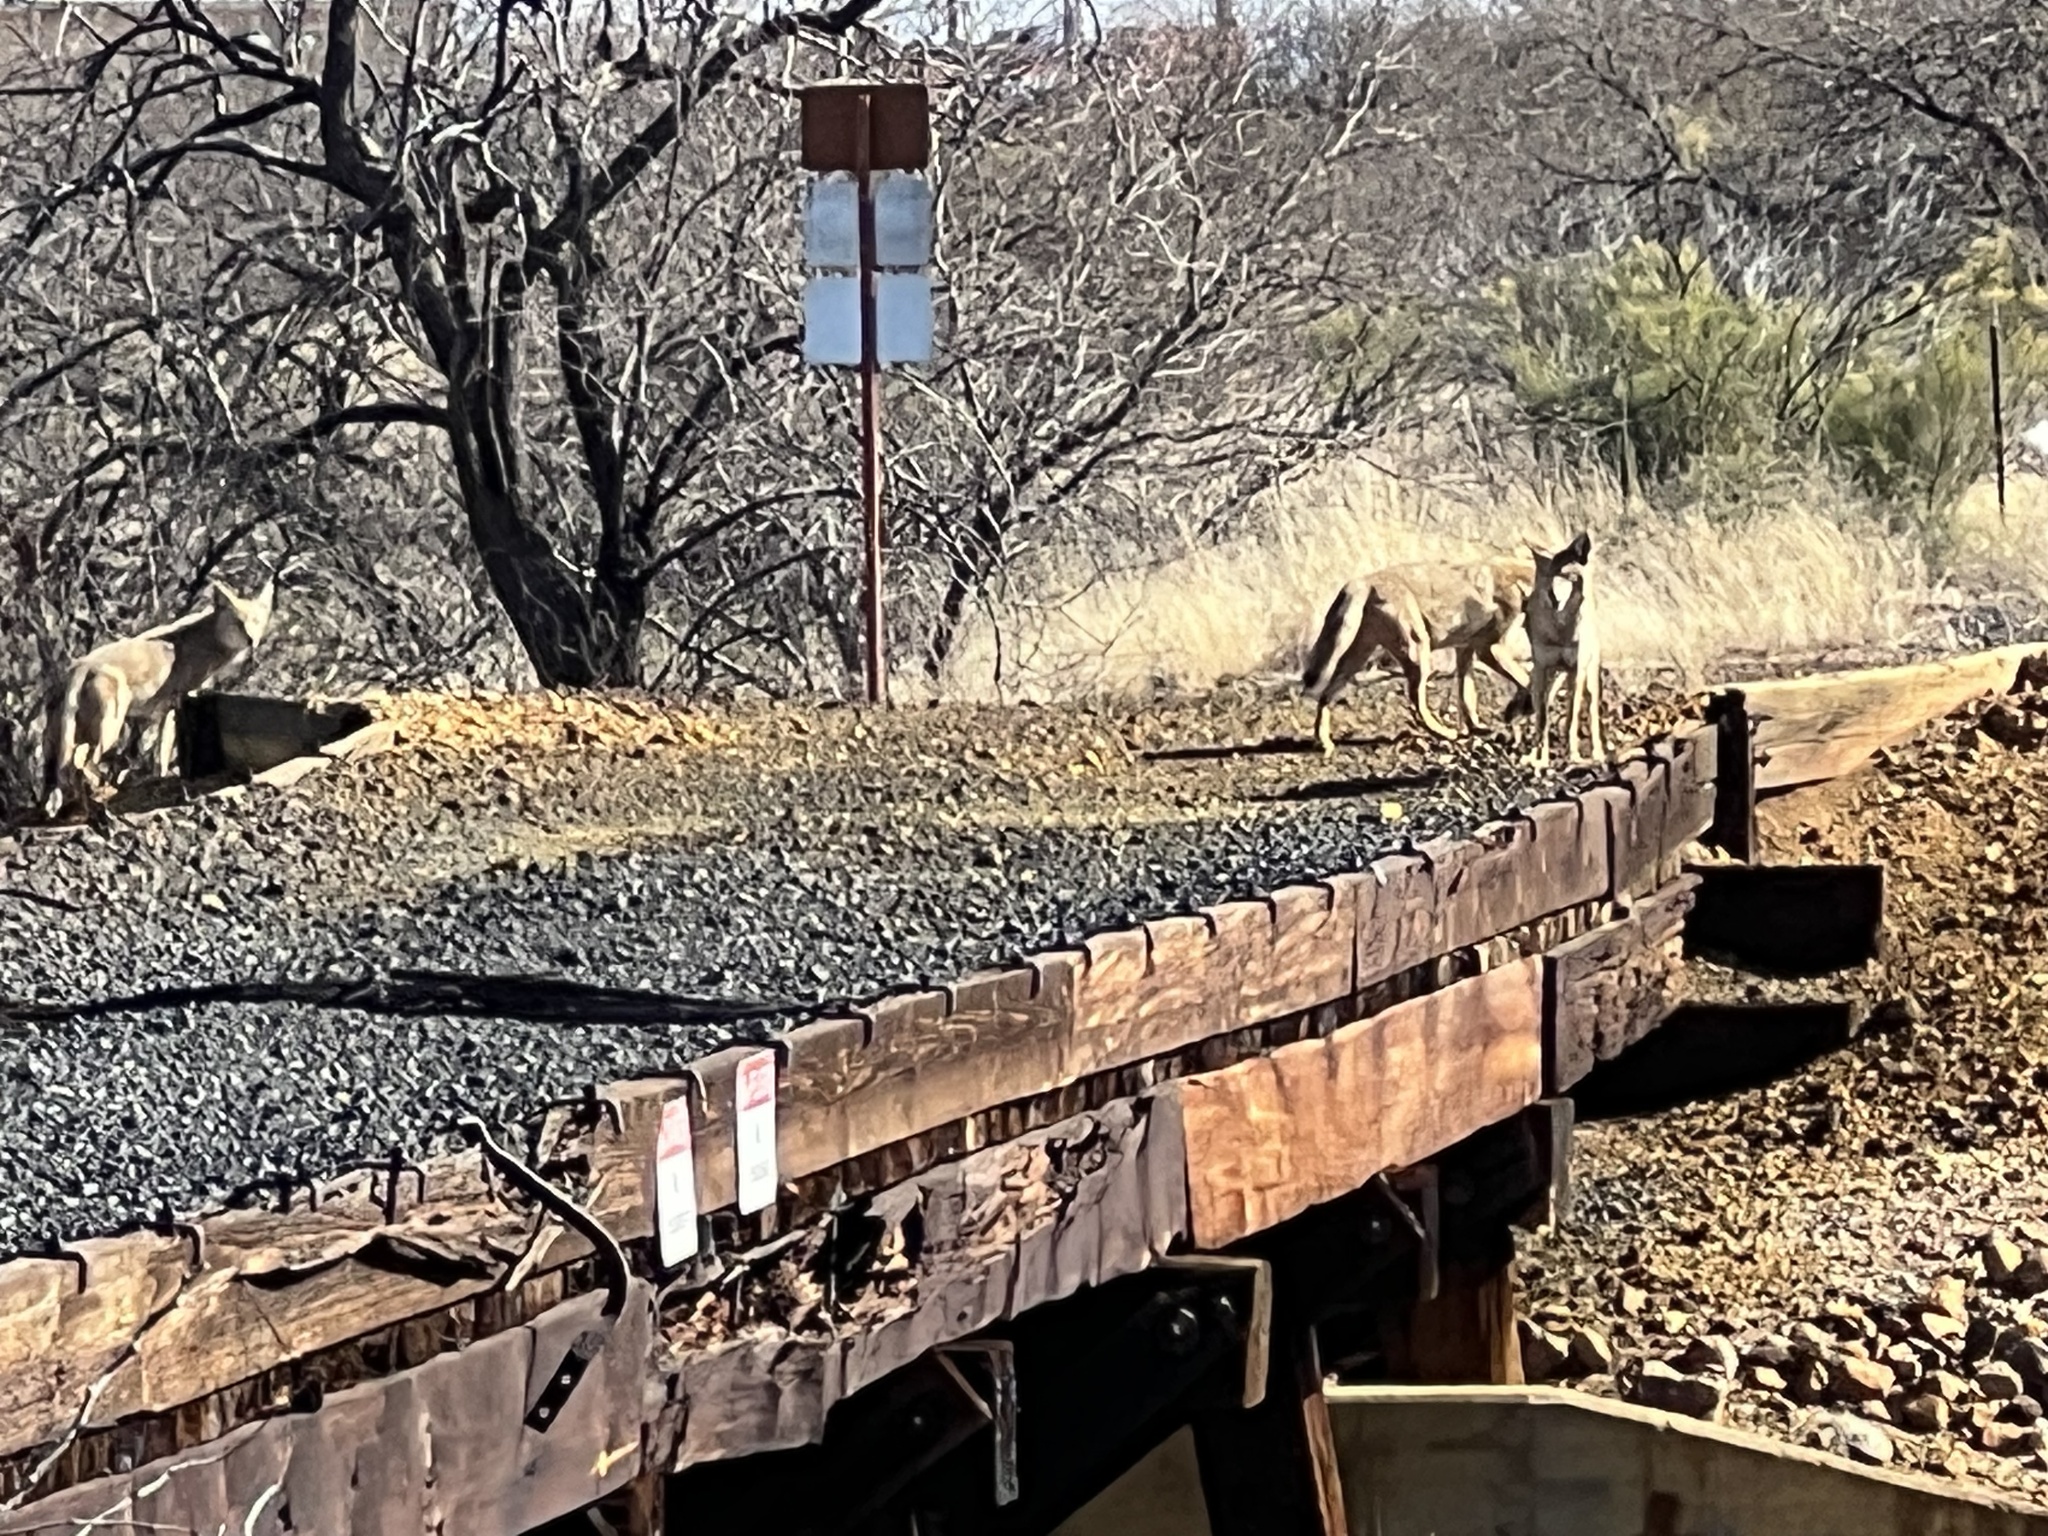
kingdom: Animalia
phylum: Chordata
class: Mammalia
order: Carnivora
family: Canidae
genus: Canis
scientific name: Canis latrans
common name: Coyote
